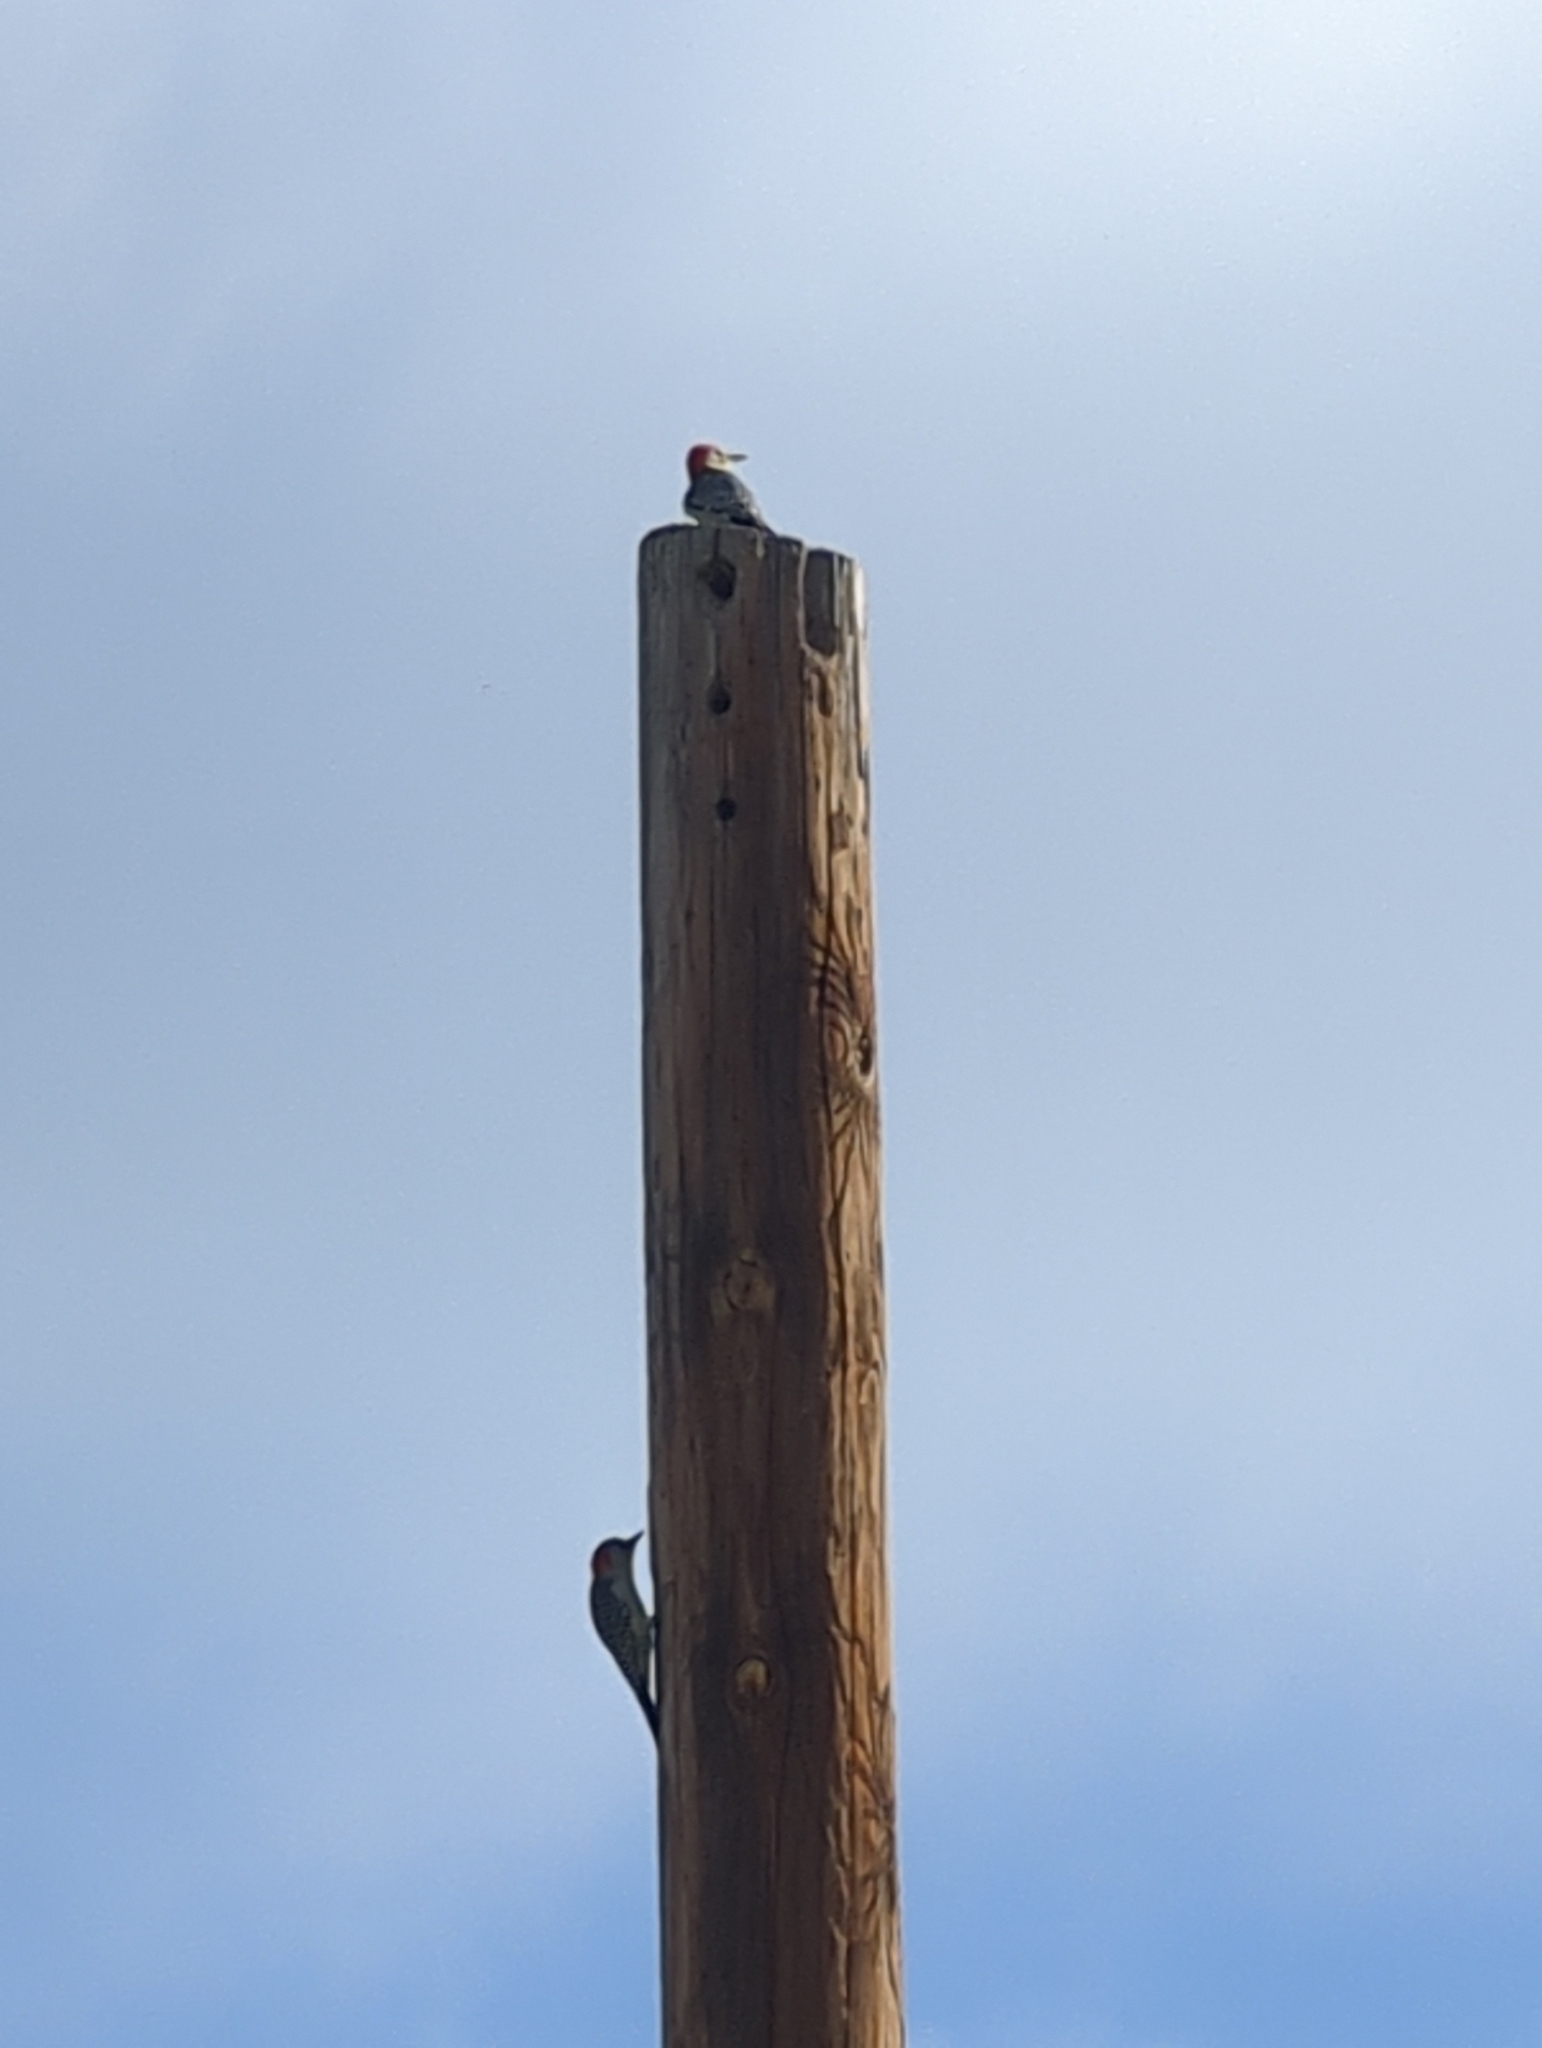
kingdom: Animalia
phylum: Chordata
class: Aves
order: Piciformes
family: Picidae
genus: Melanerpes
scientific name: Melanerpes carolinus
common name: Red-bellied woodpecker
